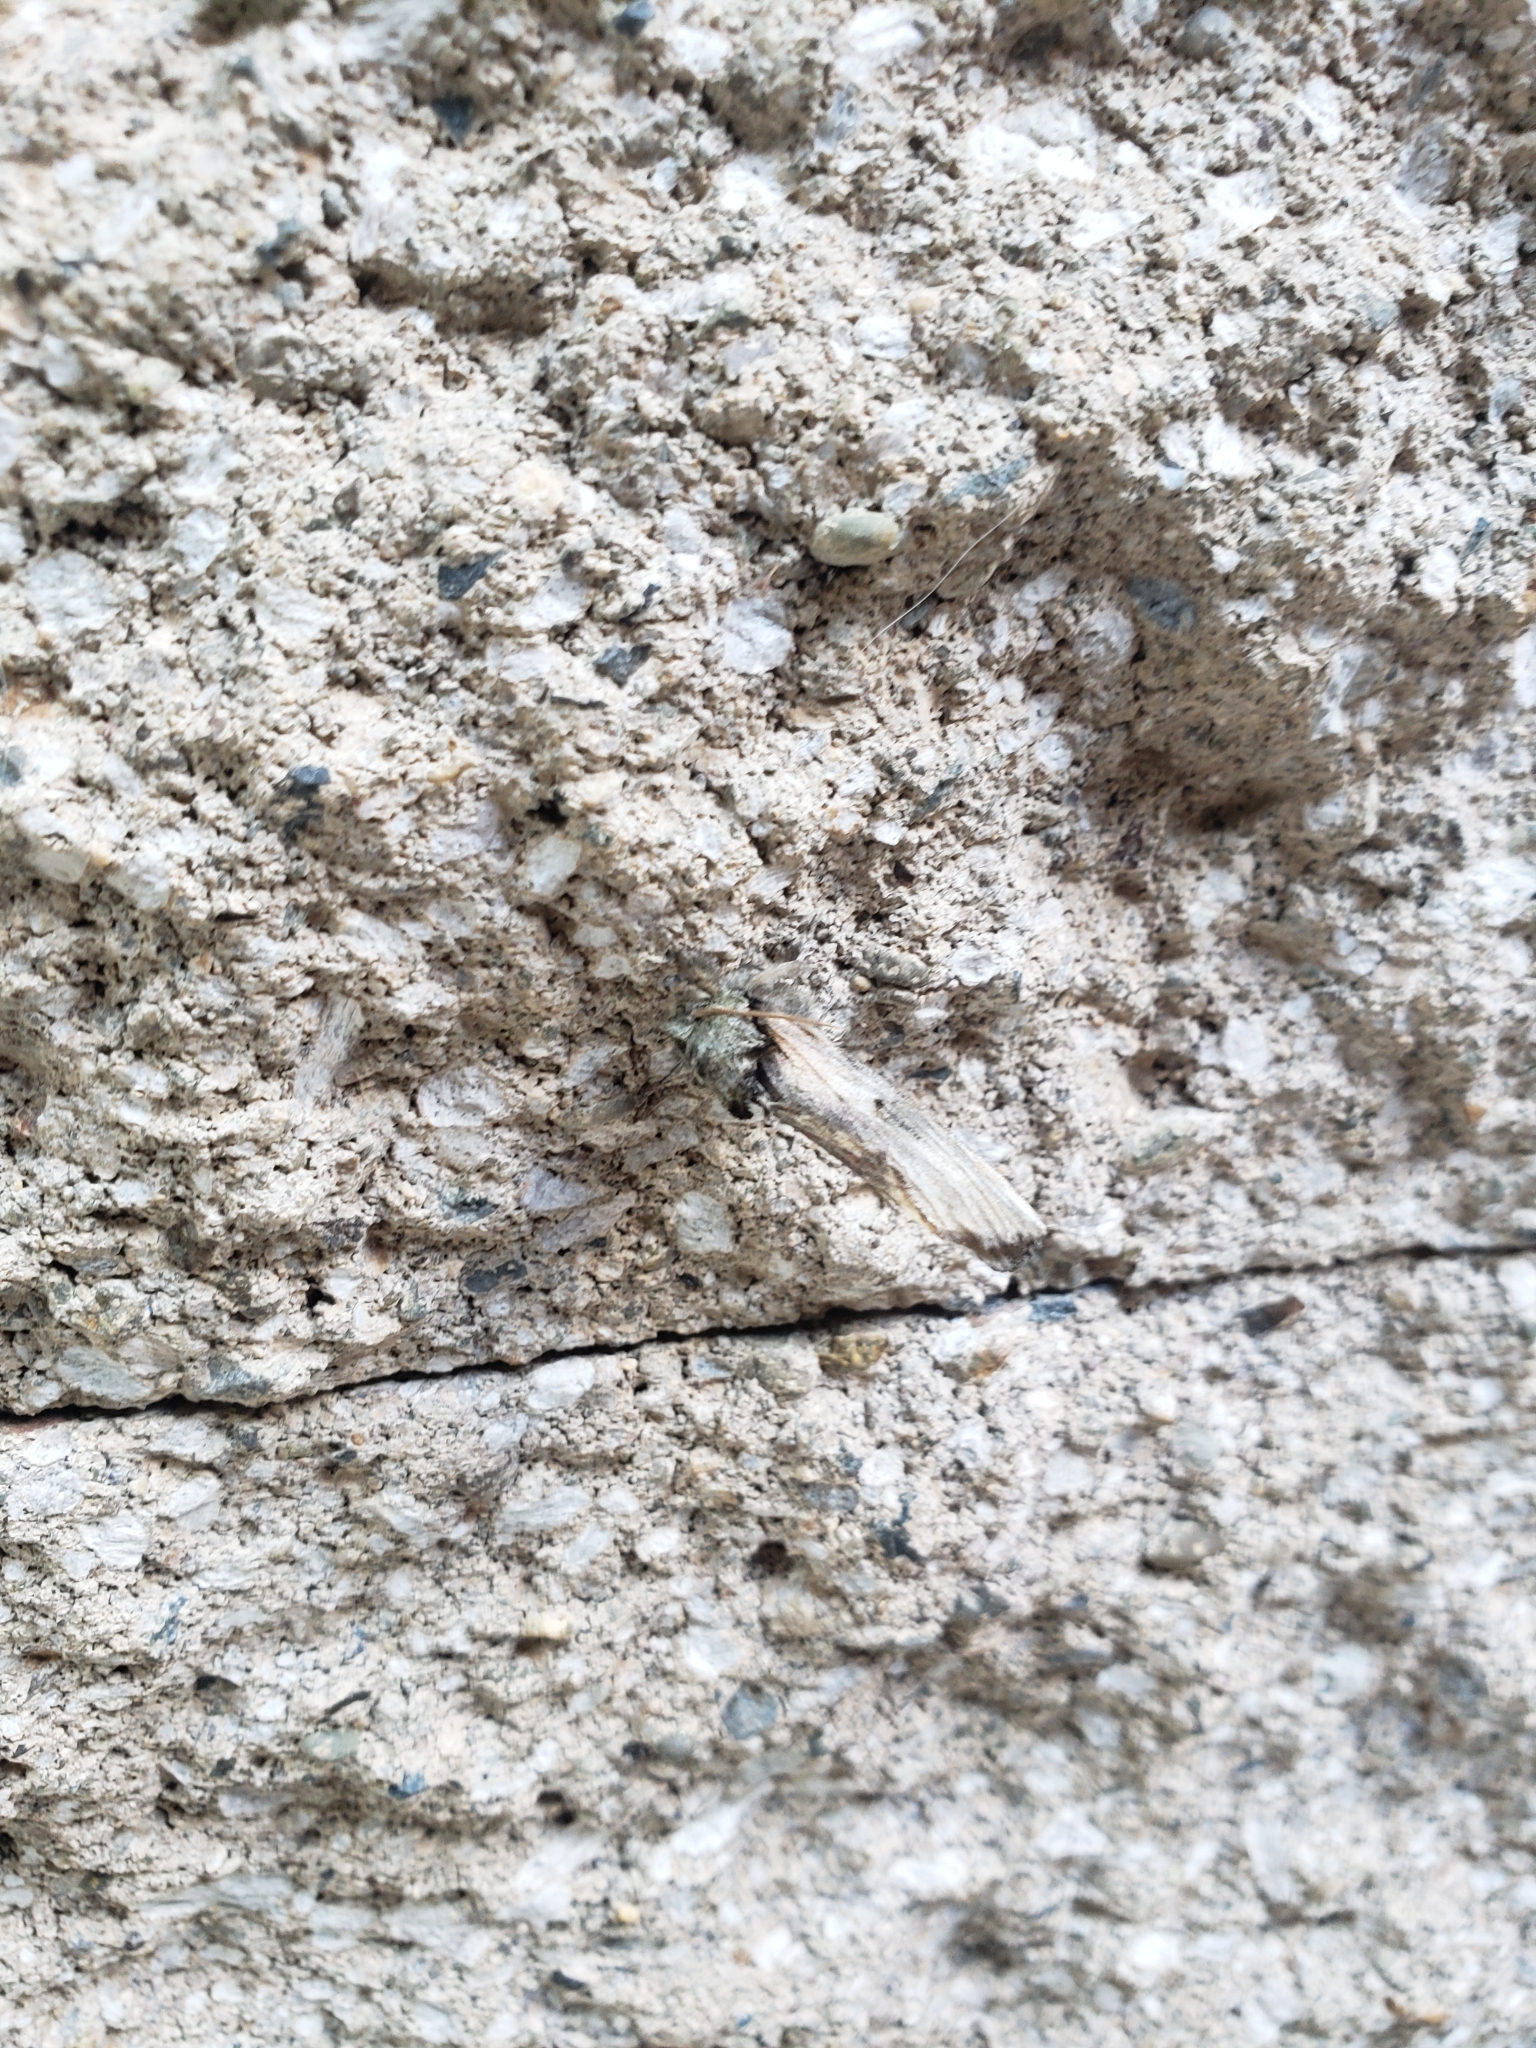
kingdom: Animalia
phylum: Arthropoda
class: Insecta
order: Lepidoptera
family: Notodontidae
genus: Oligocentria
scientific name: Oligocentria Ianassa lignicolor
